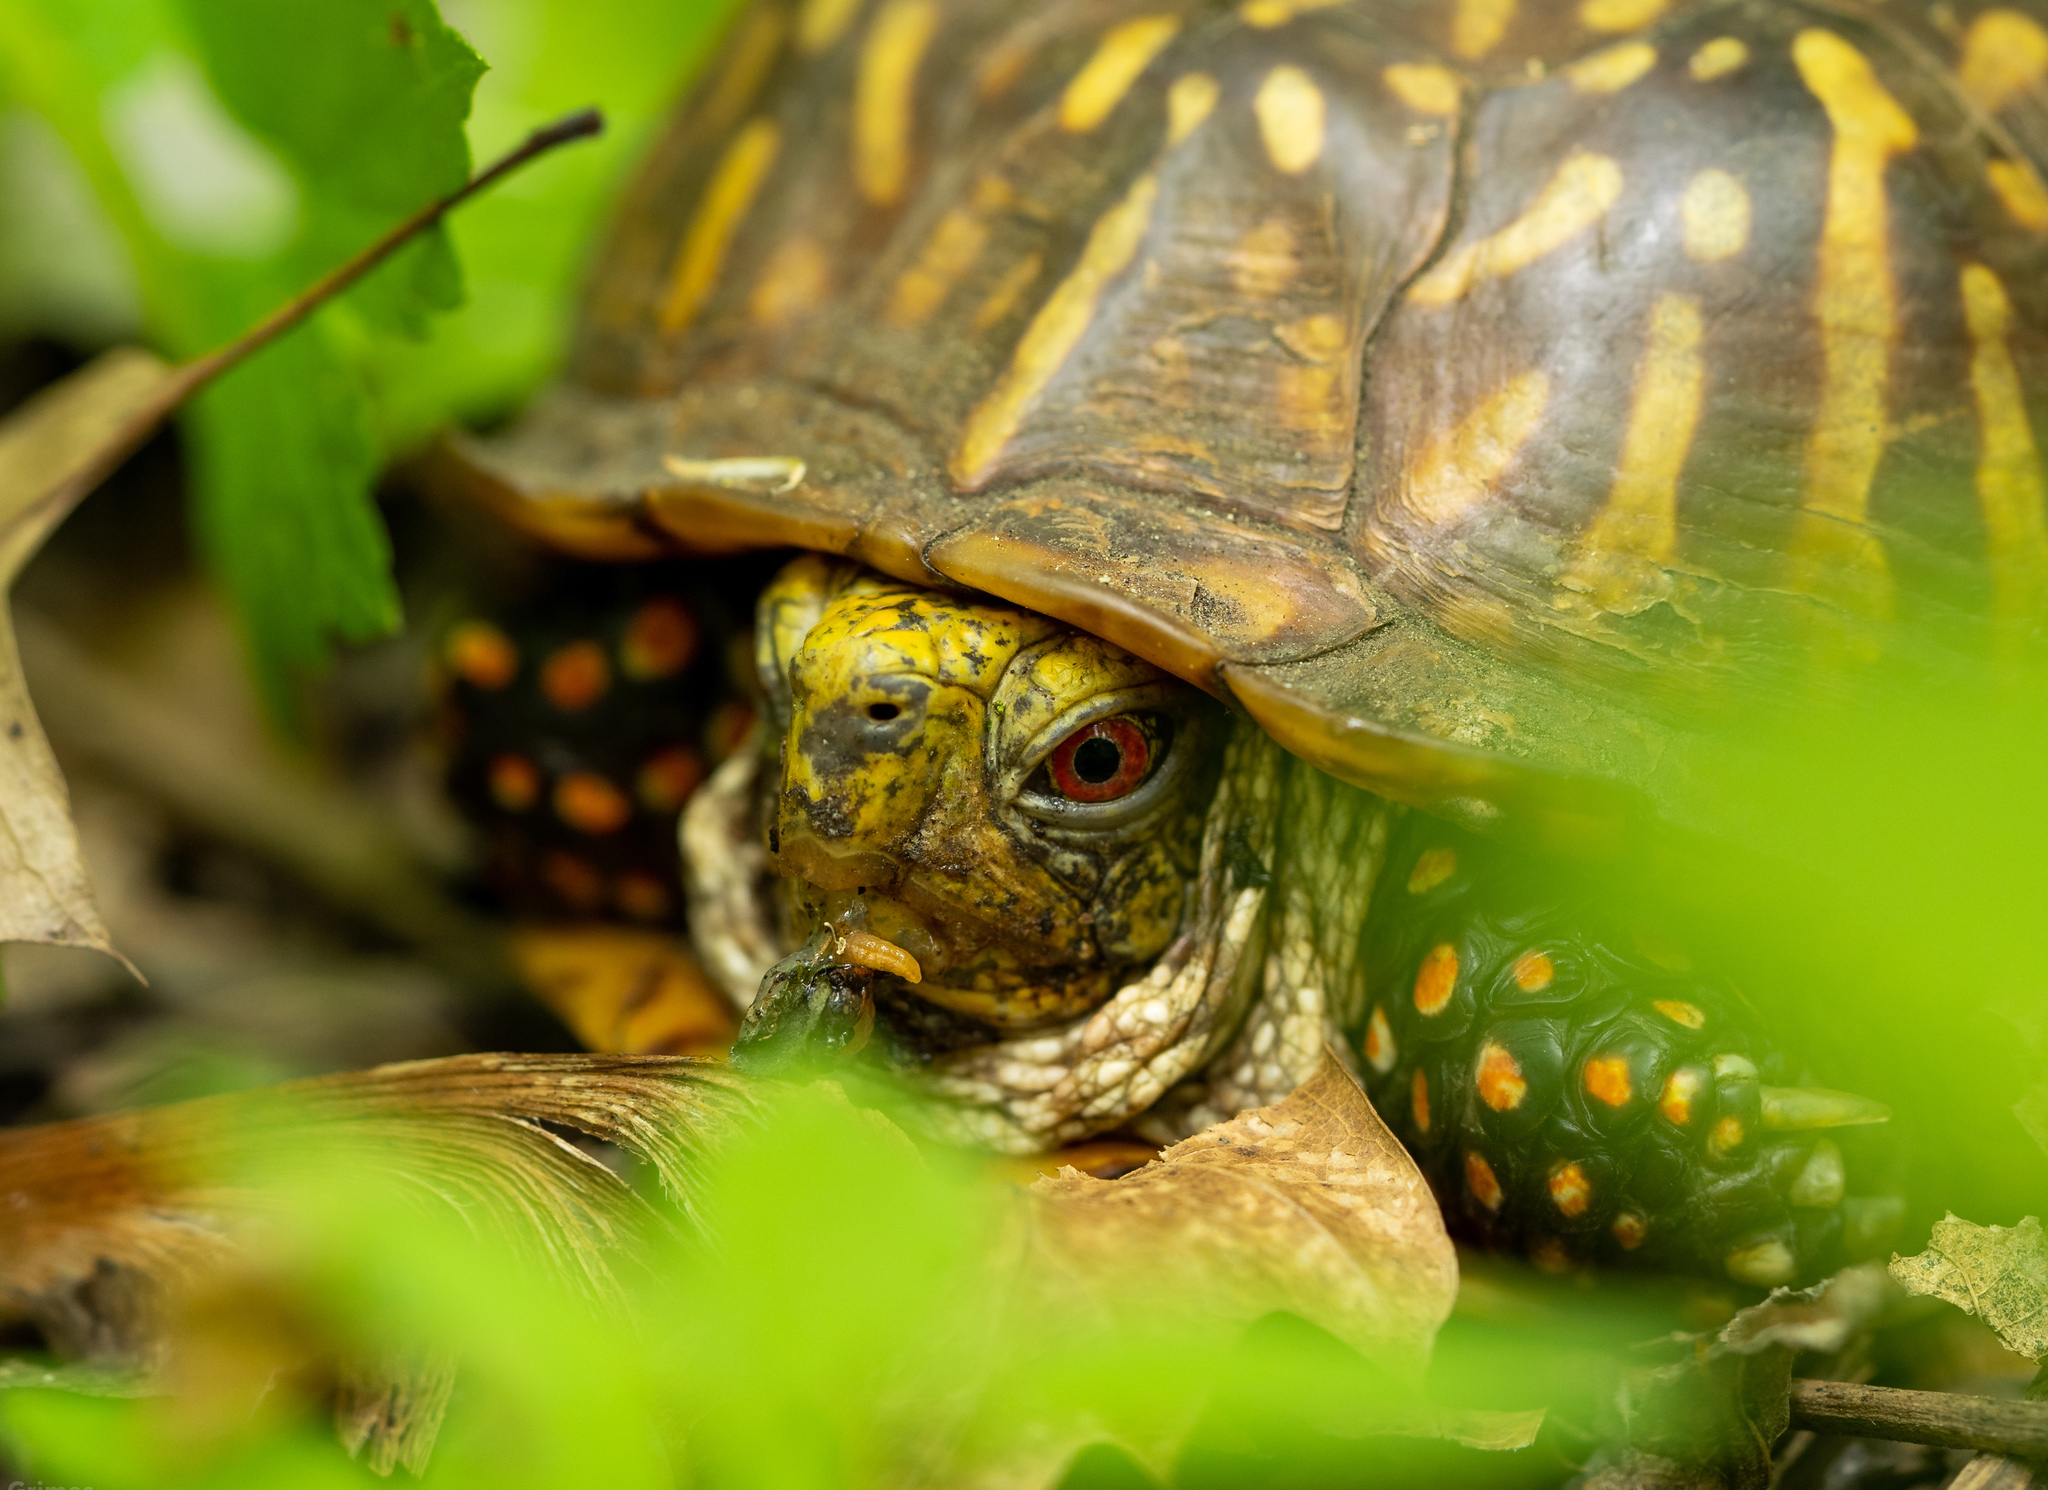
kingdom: Animalia
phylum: Chordata
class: Testudines
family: Emydidae
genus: Terrapene
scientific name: Terrapene ornata
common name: Western box turtle
